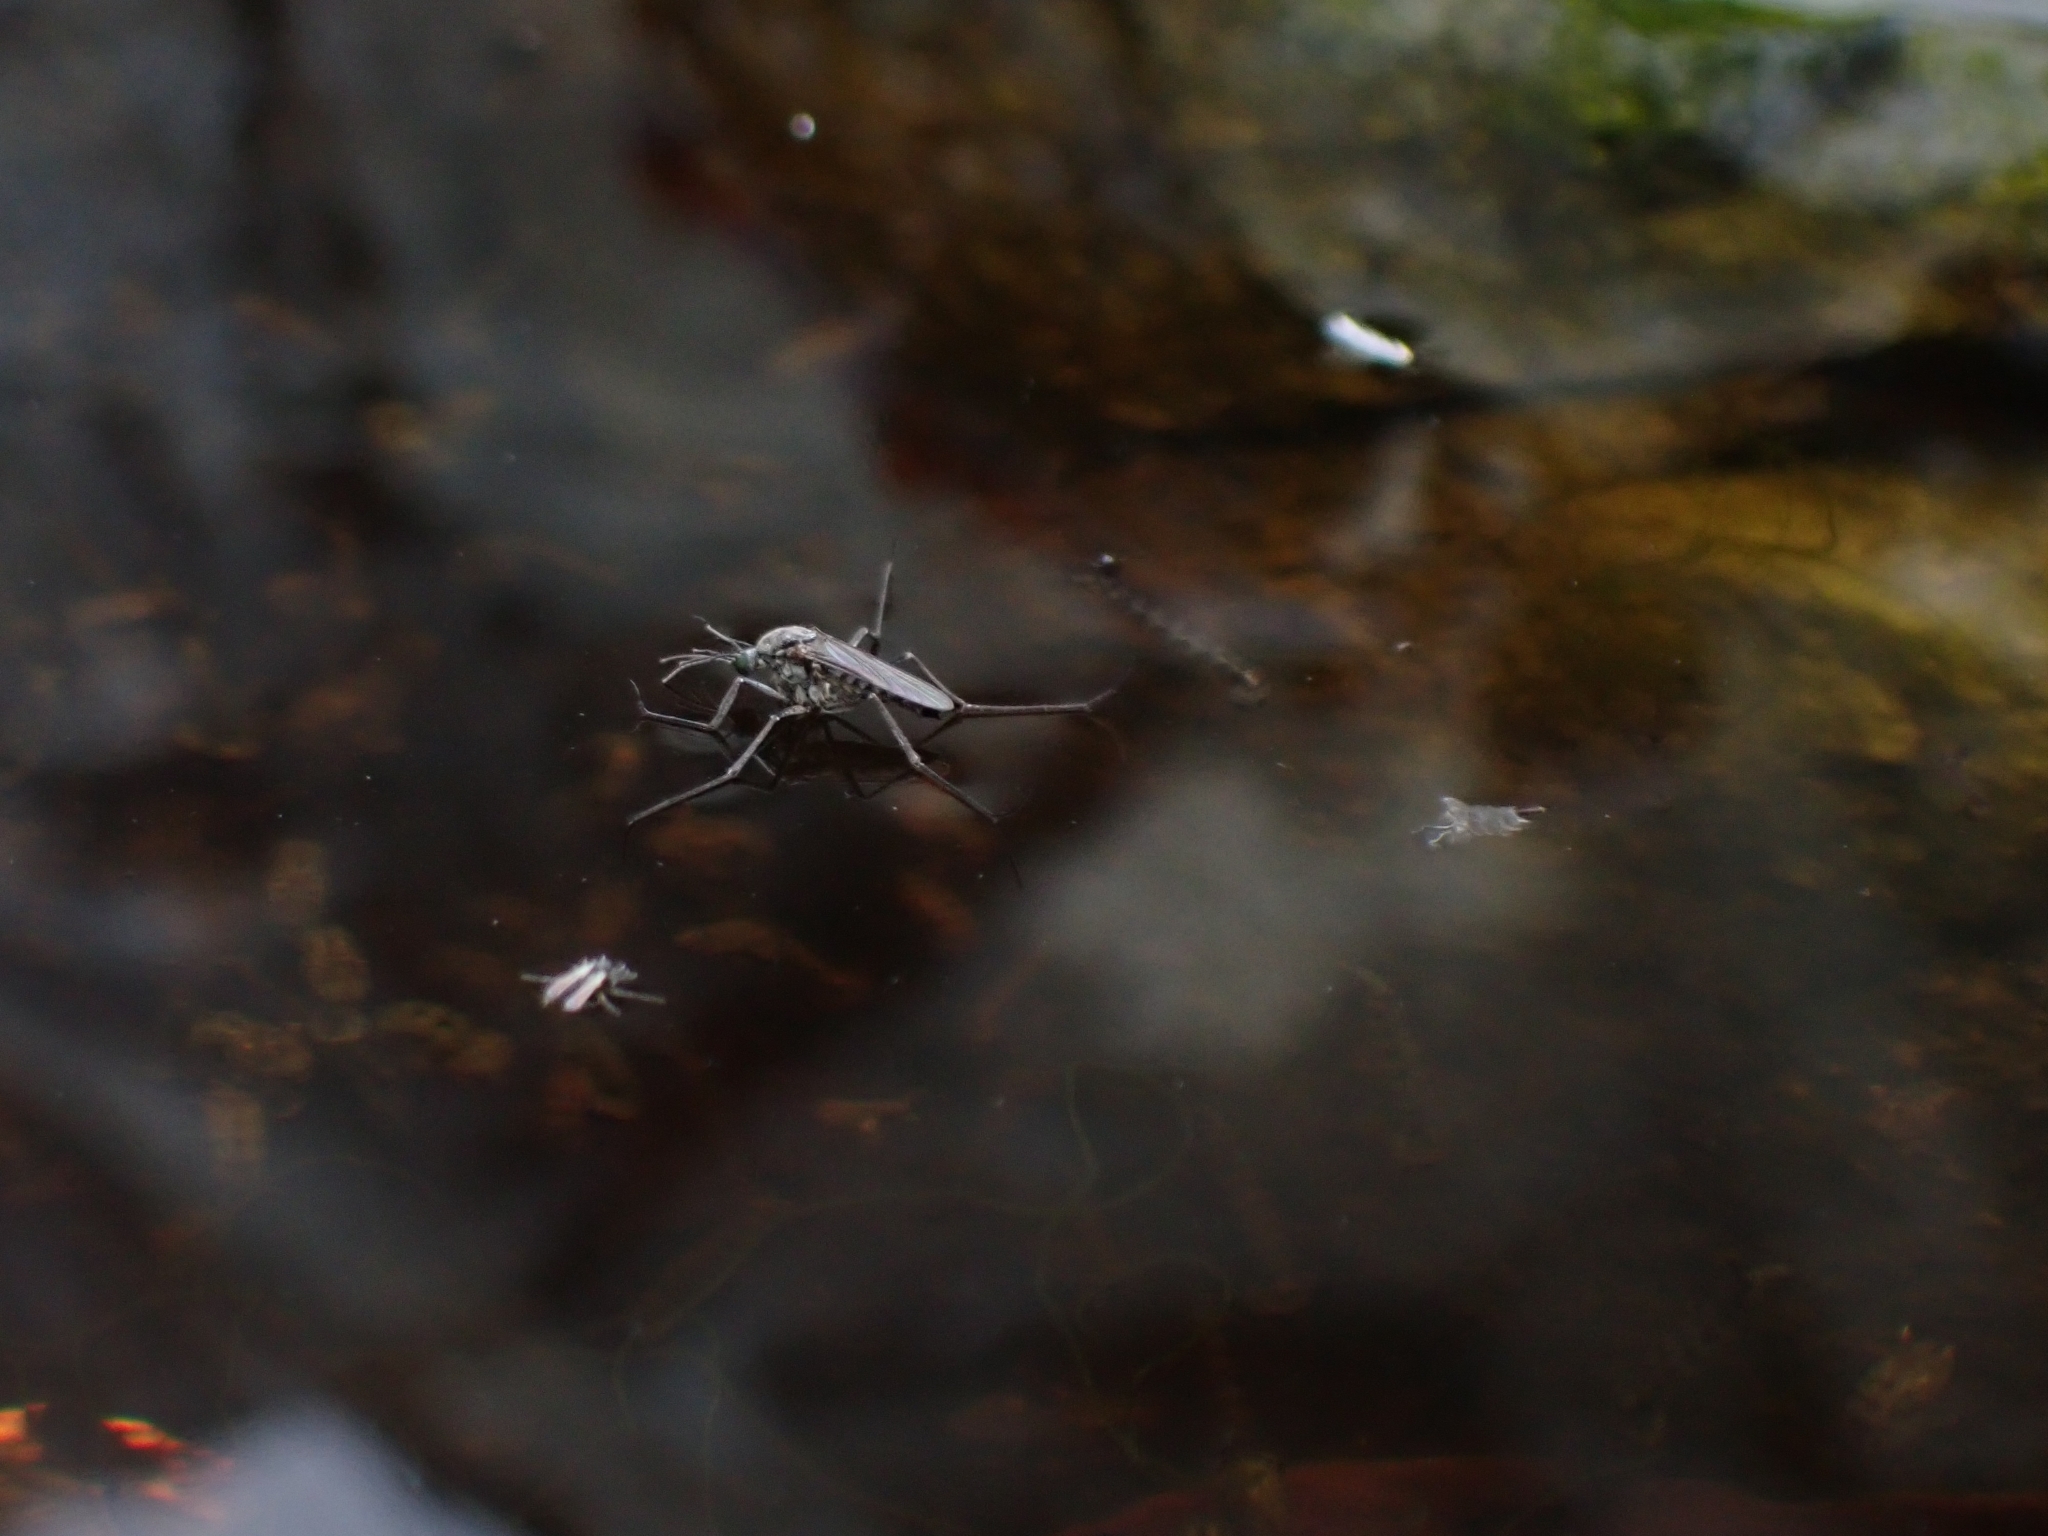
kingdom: Animalia
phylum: Arthropoda
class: Insecta
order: Diptera
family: Culicidae
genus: Opifex
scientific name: Opifex fuscus
